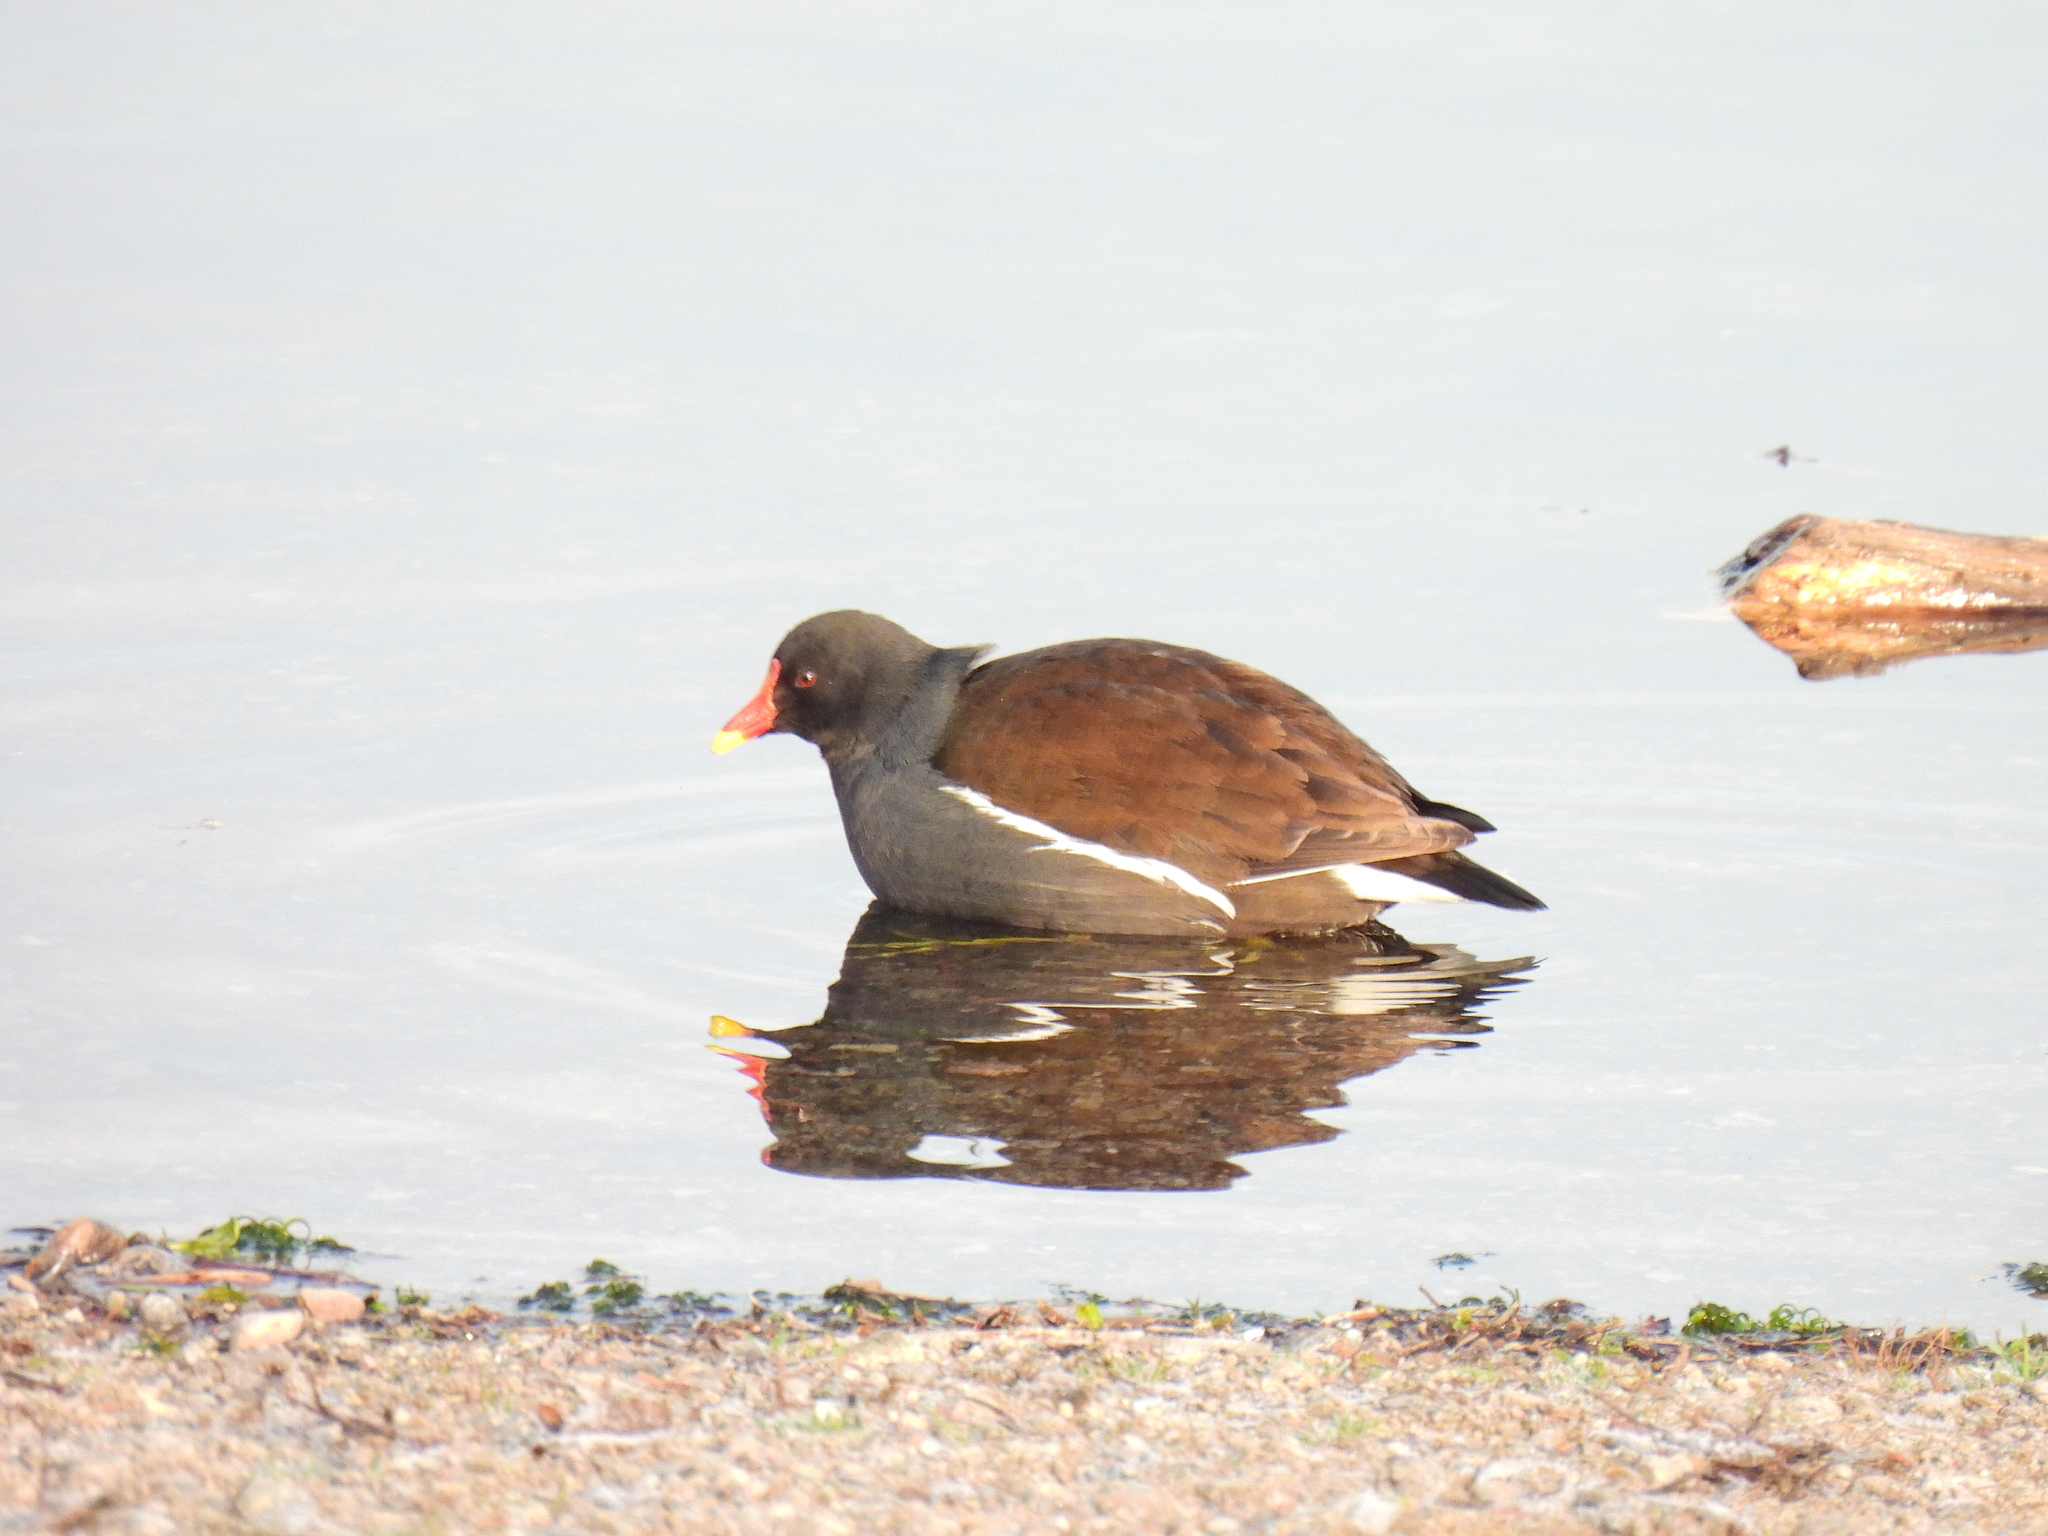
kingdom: Animalia
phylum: Chordata
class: Aves
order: Gruiformes
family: Rallidae
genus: Gallinula
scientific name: Gallinula chloropus
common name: Common moorhen
